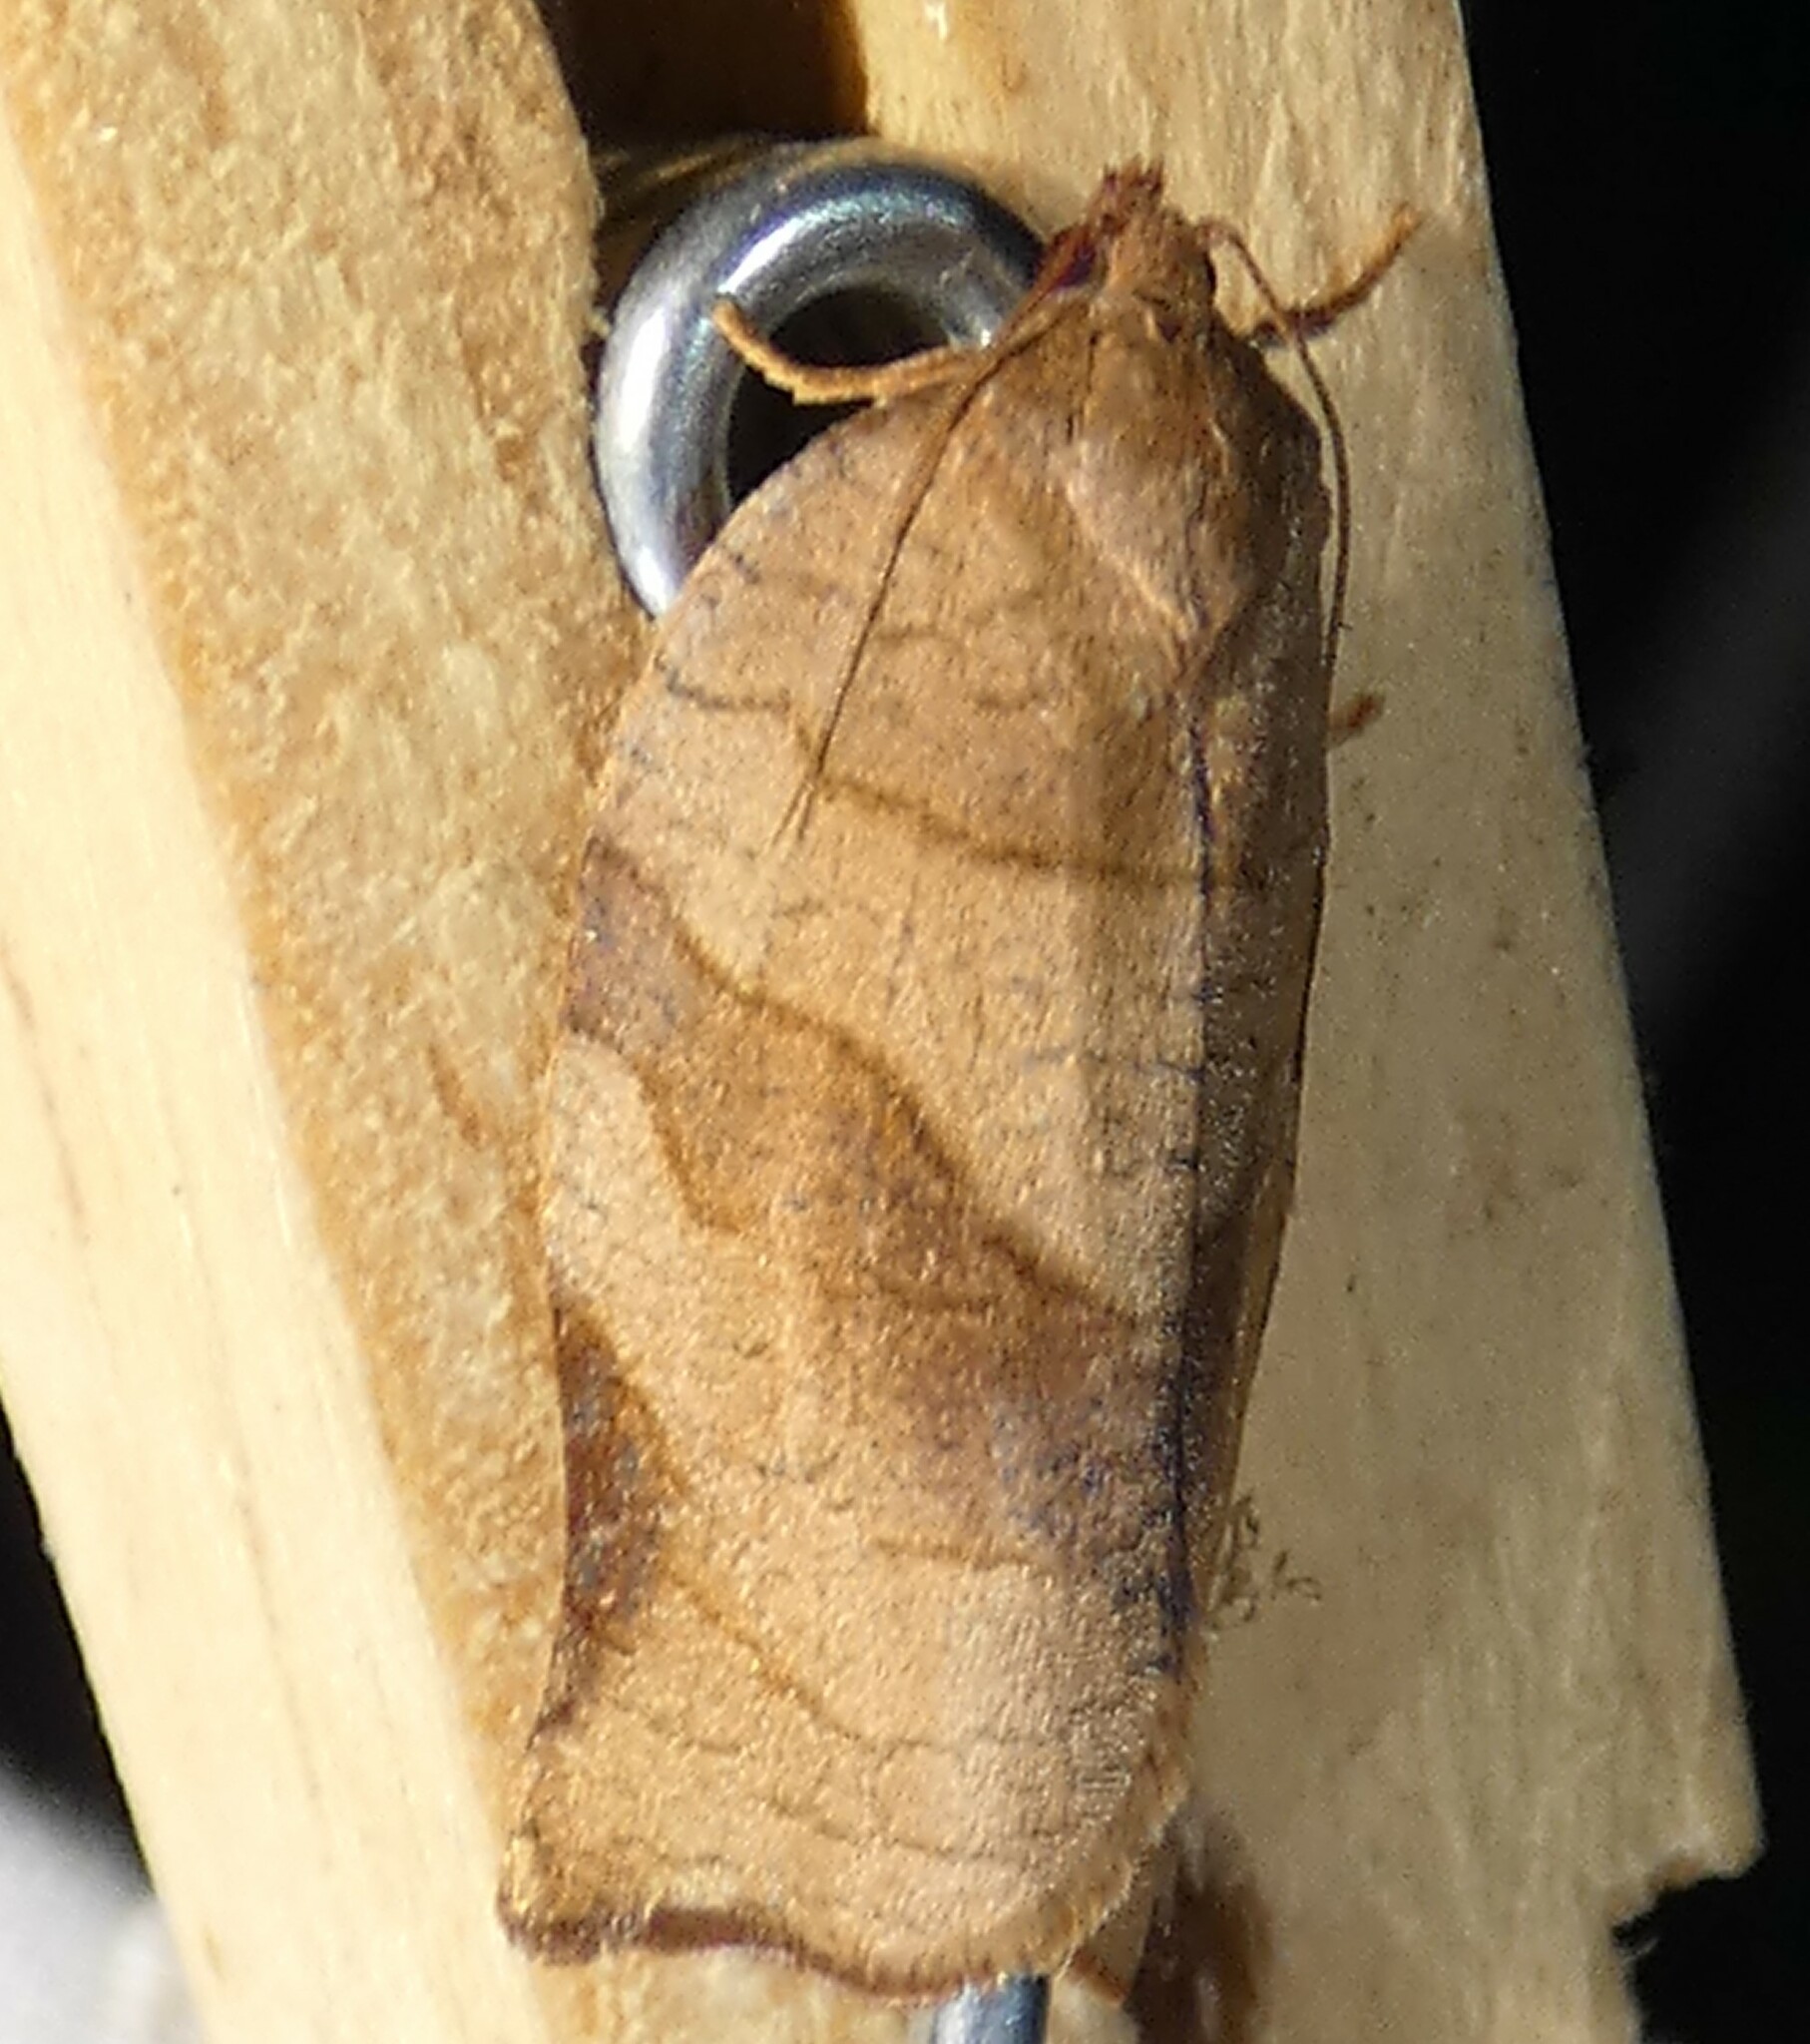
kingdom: Animalia
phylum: Arthropoda
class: Insecta
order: Lepidoptera
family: Tortricidae
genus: Choristoneura
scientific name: Choristoneura rosaceana
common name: Oblique-banded leafroller moth
